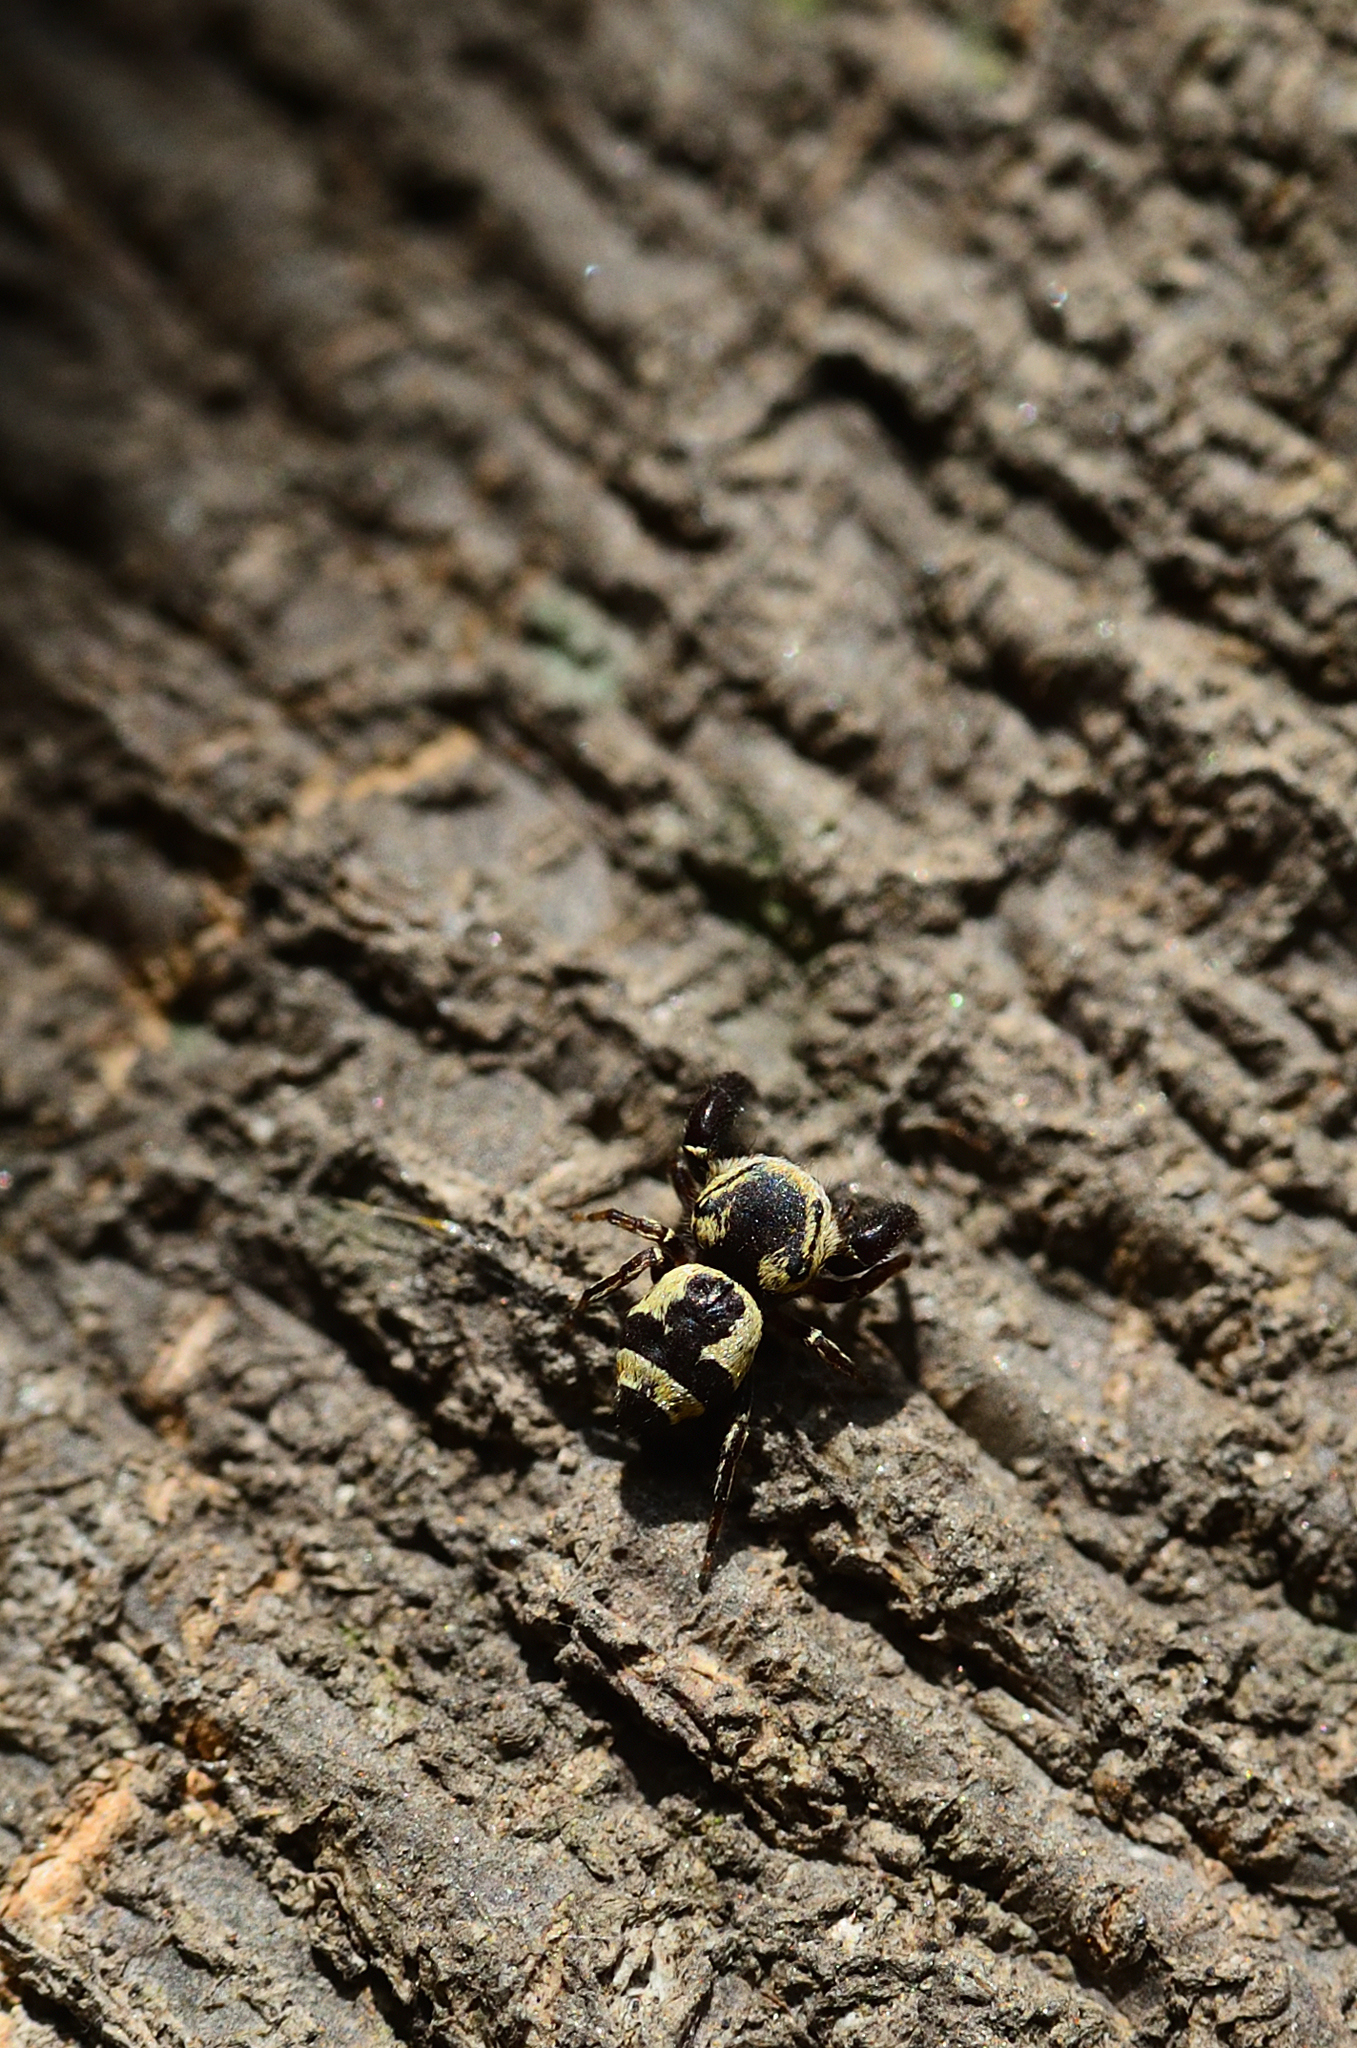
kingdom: Animalia
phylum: Arthropoda
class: Arachnida
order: Araneae
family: Salticidae
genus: Rhene
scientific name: Rhene flavicomans
